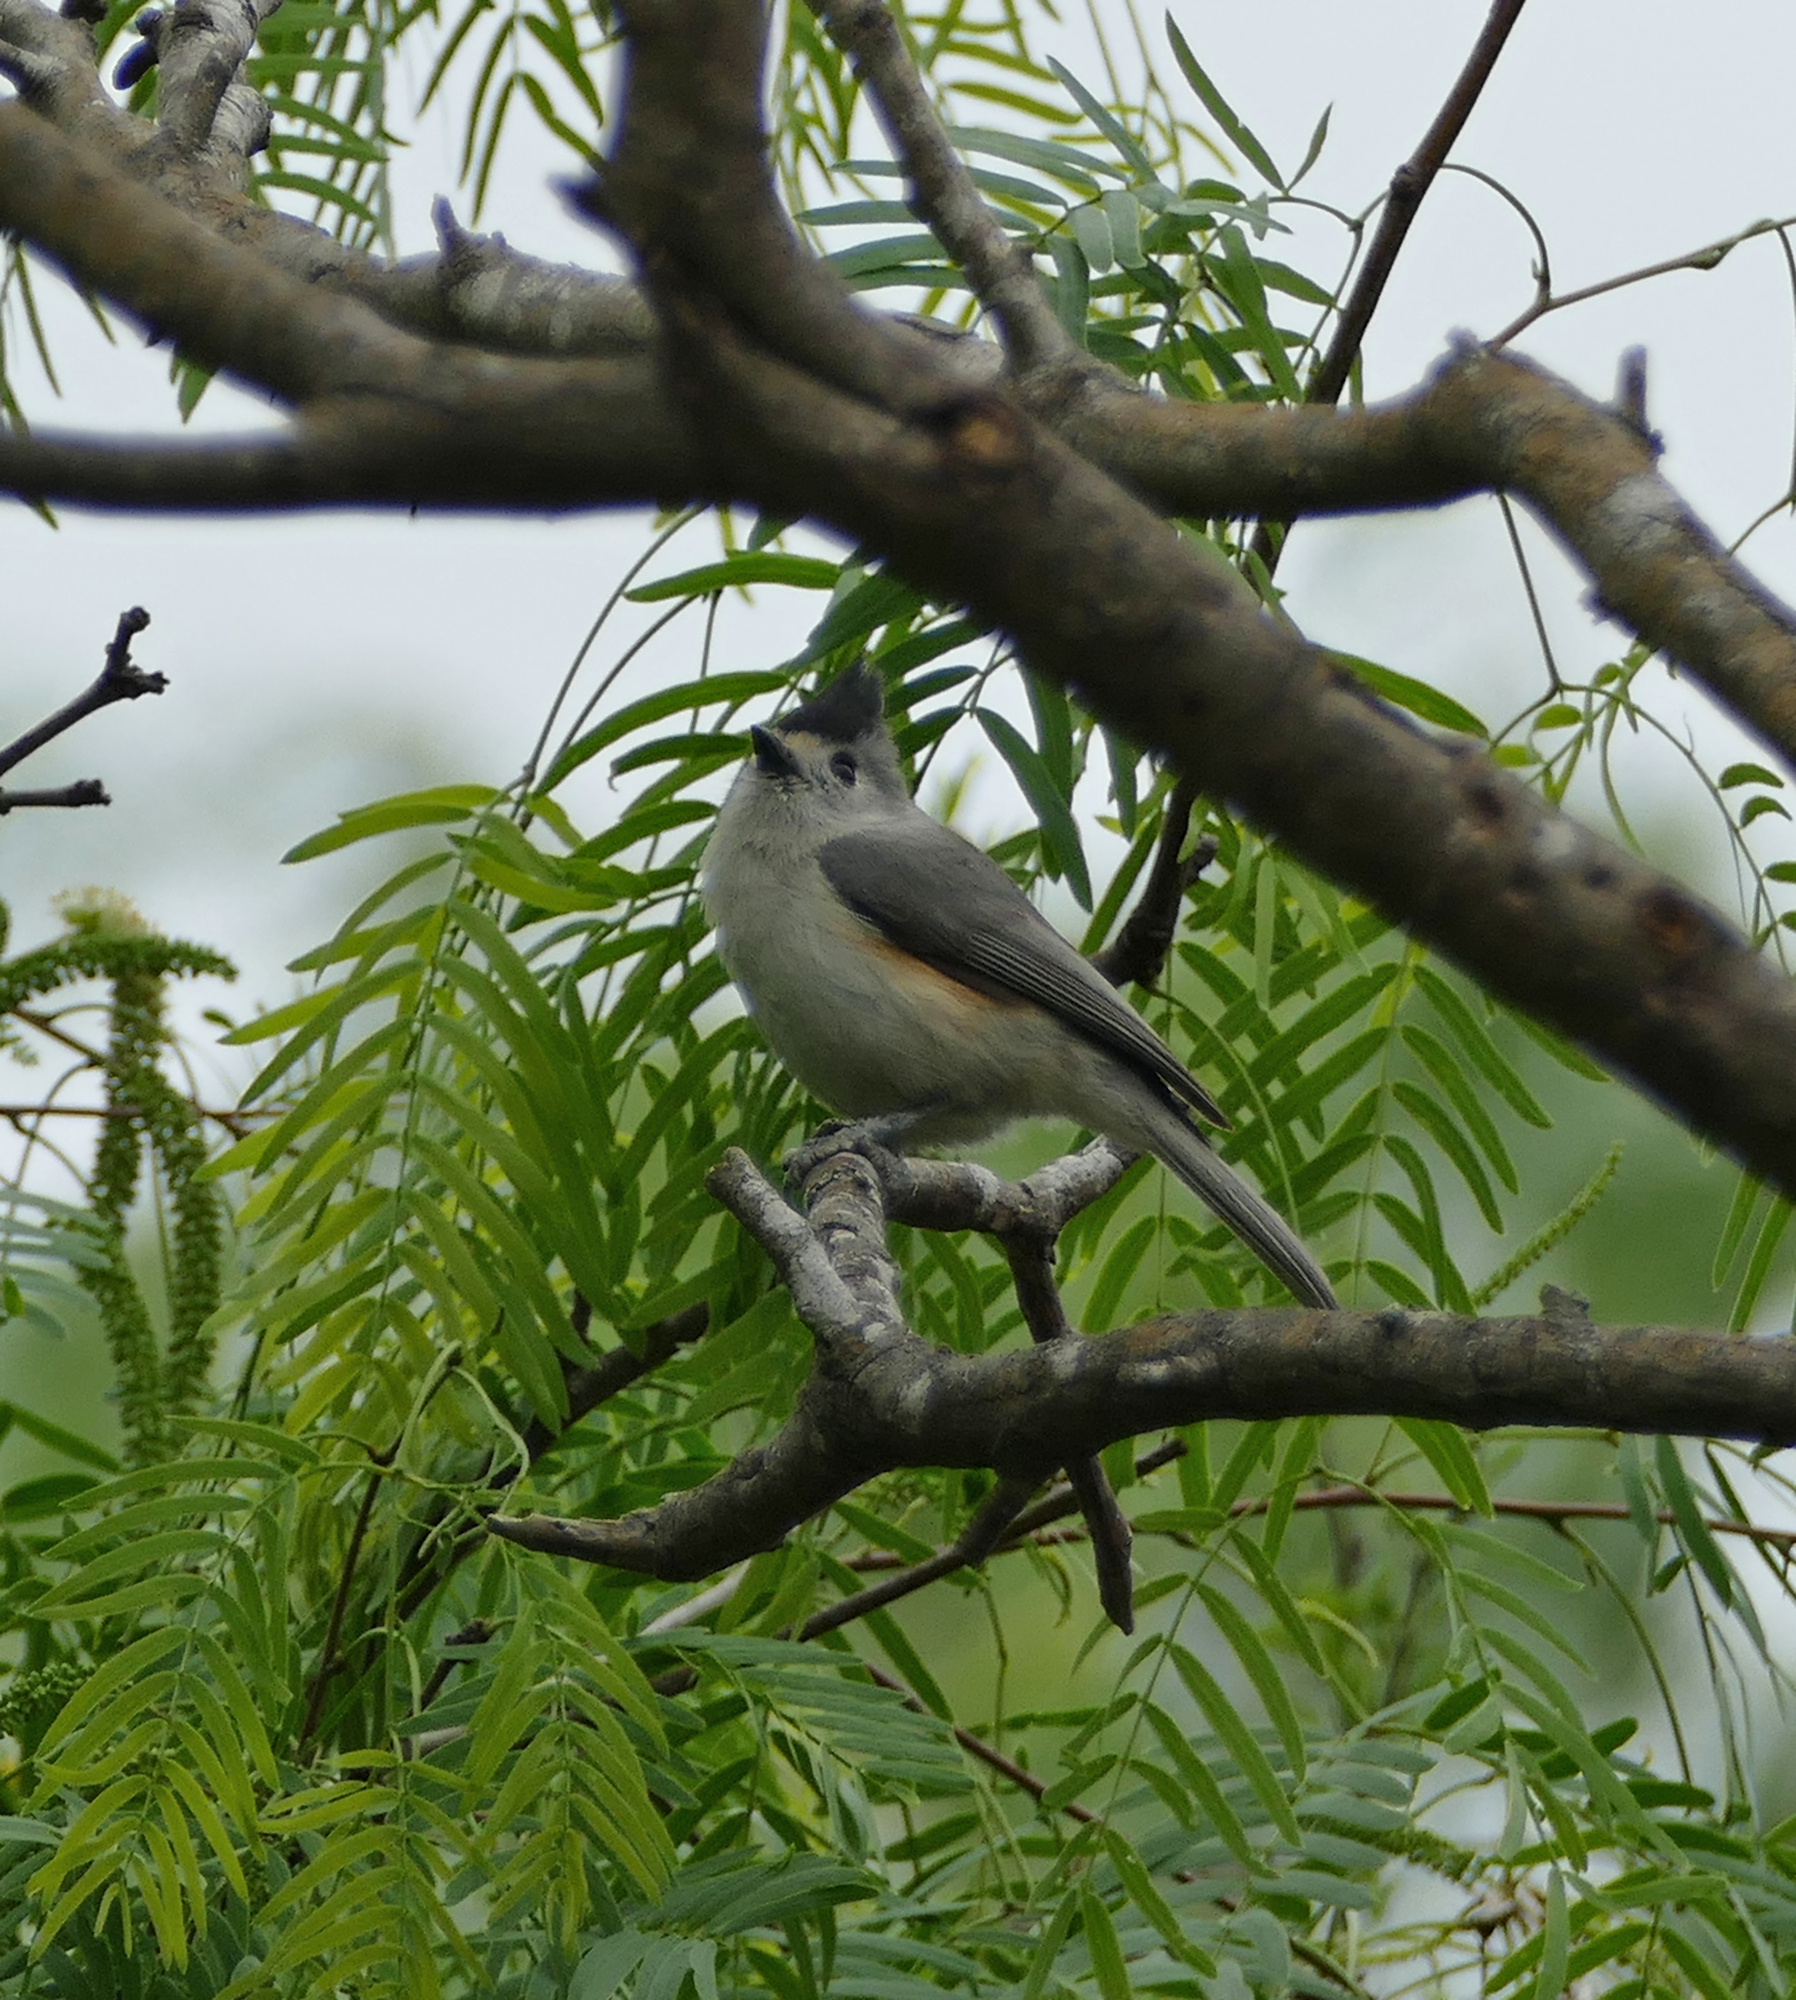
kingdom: Animalia
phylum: Chordata
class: Aves
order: Passeriformes
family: Paridae
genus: Baeolophus
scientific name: Baeolophus atricristatus
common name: Black-crested titmouse
